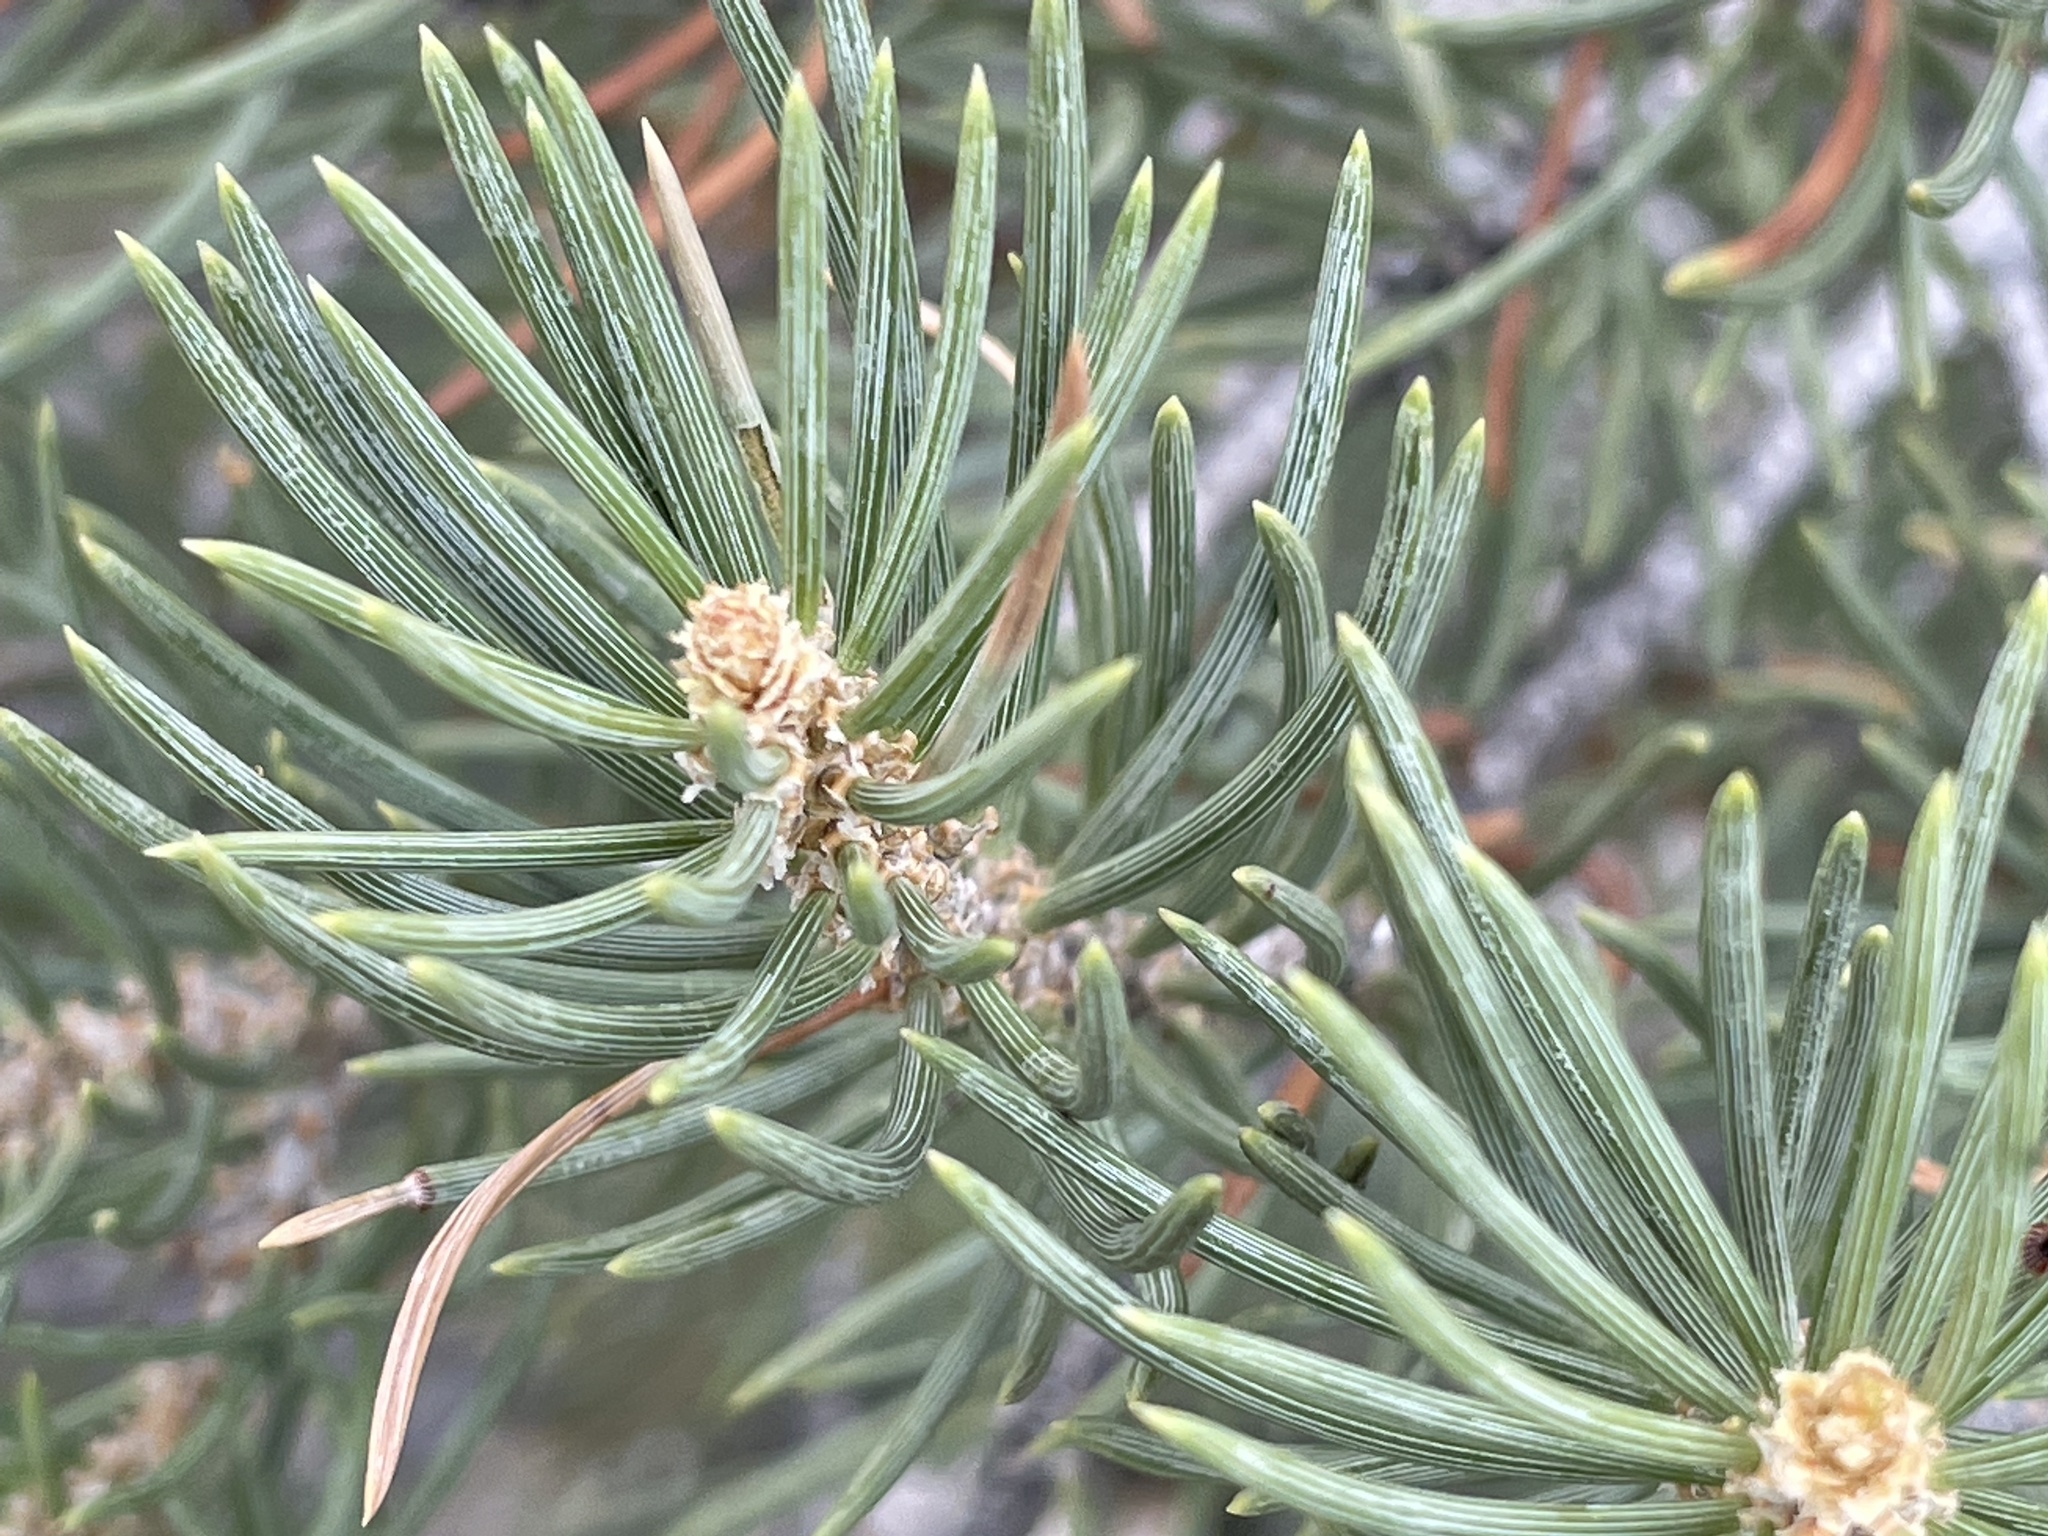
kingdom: Plantae
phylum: Tracheophyta
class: Pinopsida
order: Pinales
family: Pinaceae
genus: Pinus
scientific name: Pinus monophylla
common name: One-leaved nut pine
